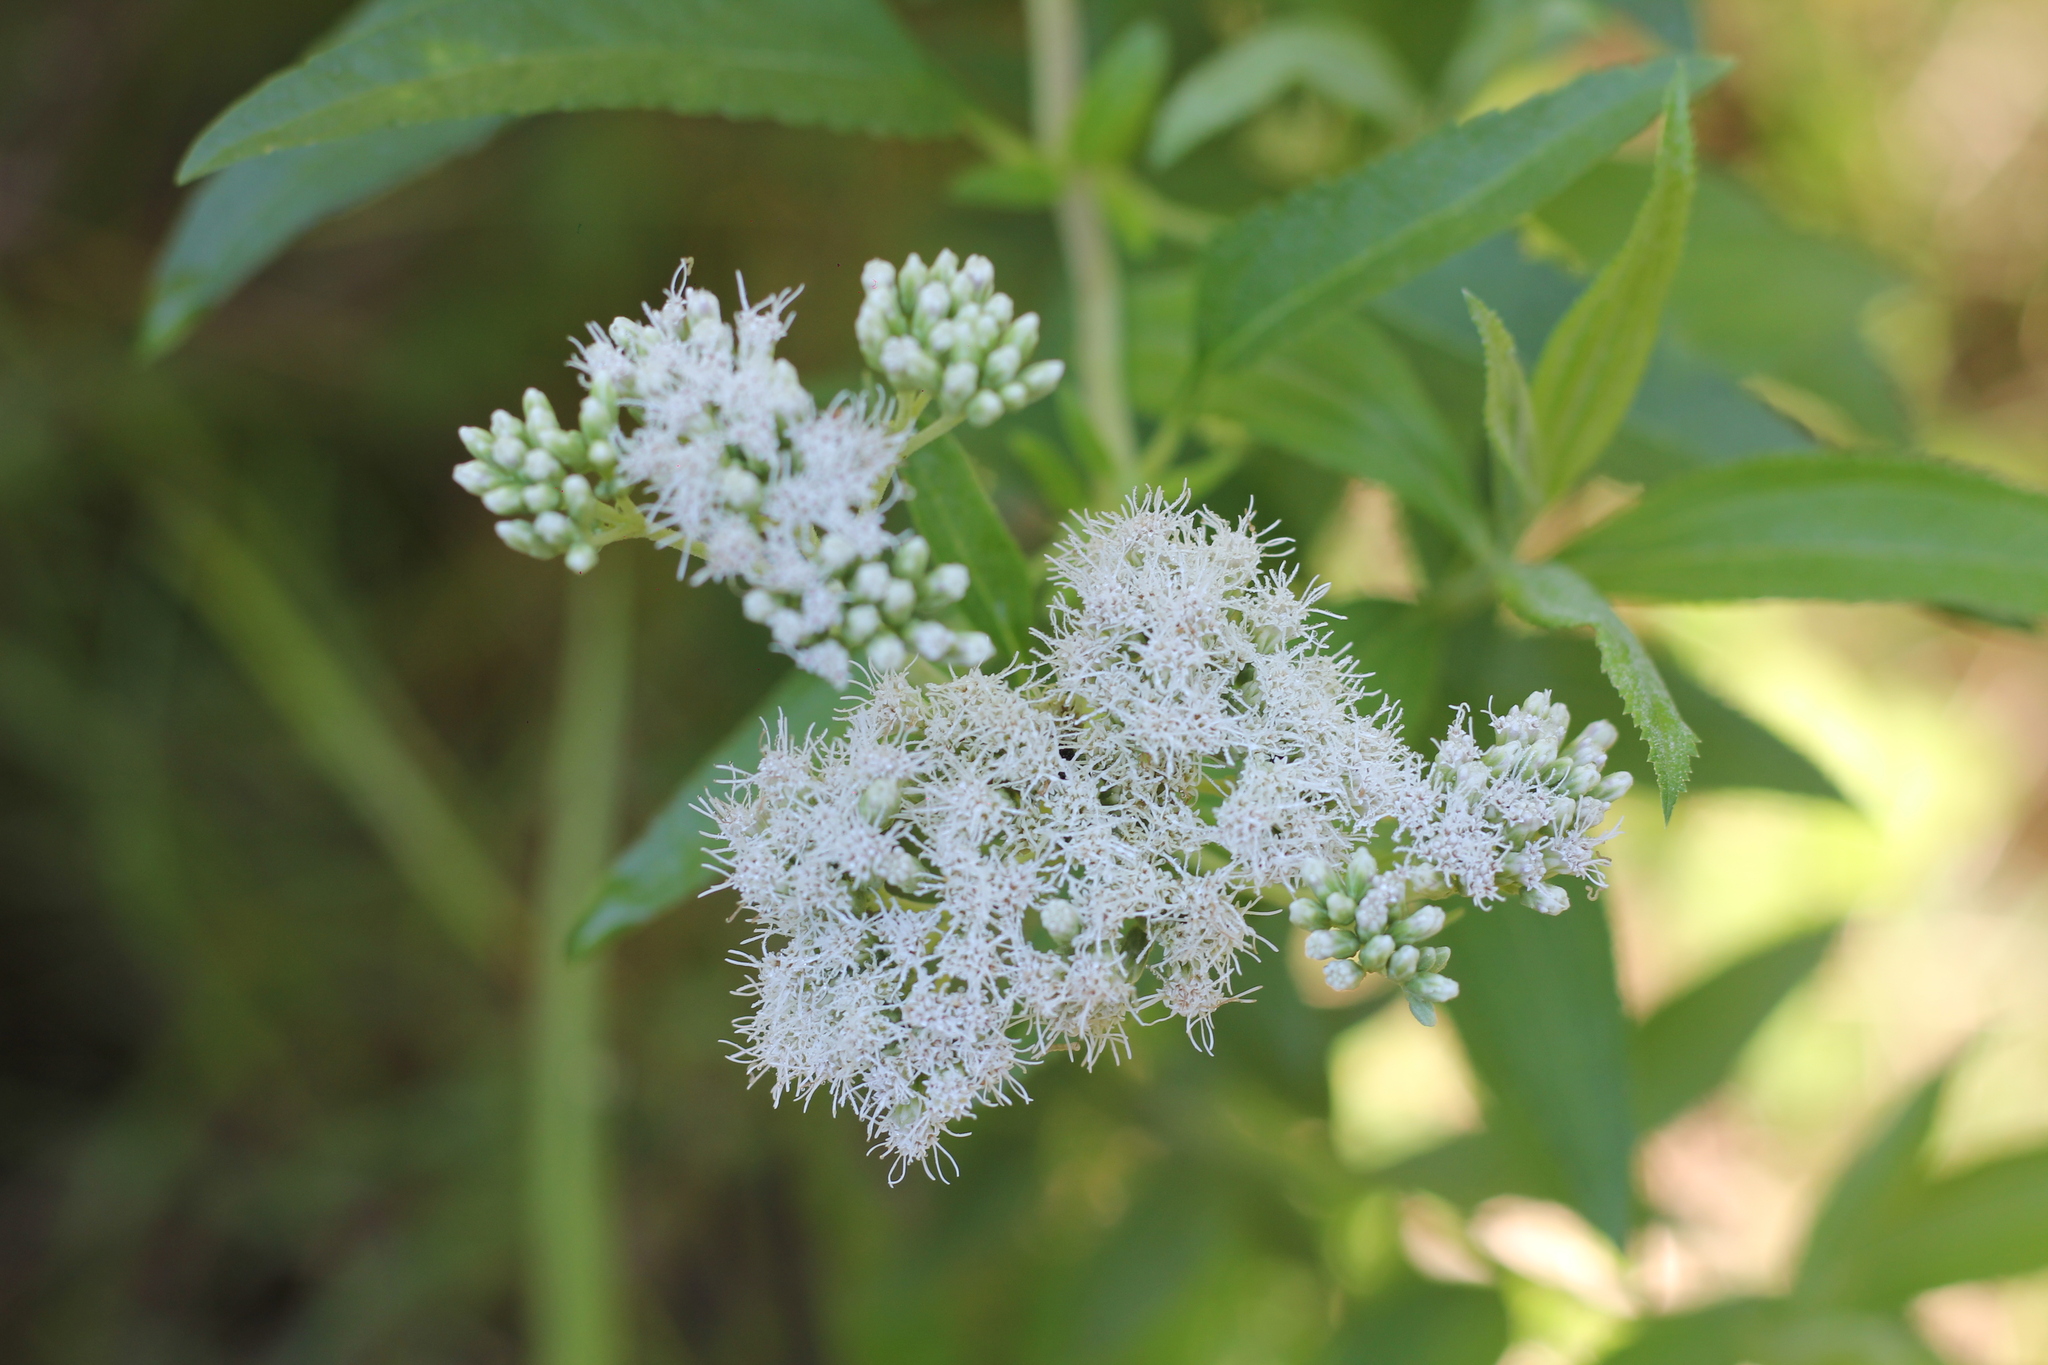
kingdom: Plantae
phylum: Tracheophyta
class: Magnoliopsida
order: Asterales
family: Asteraceae
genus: Austroeupatorium
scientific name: Austroeupatorium inulifolium
